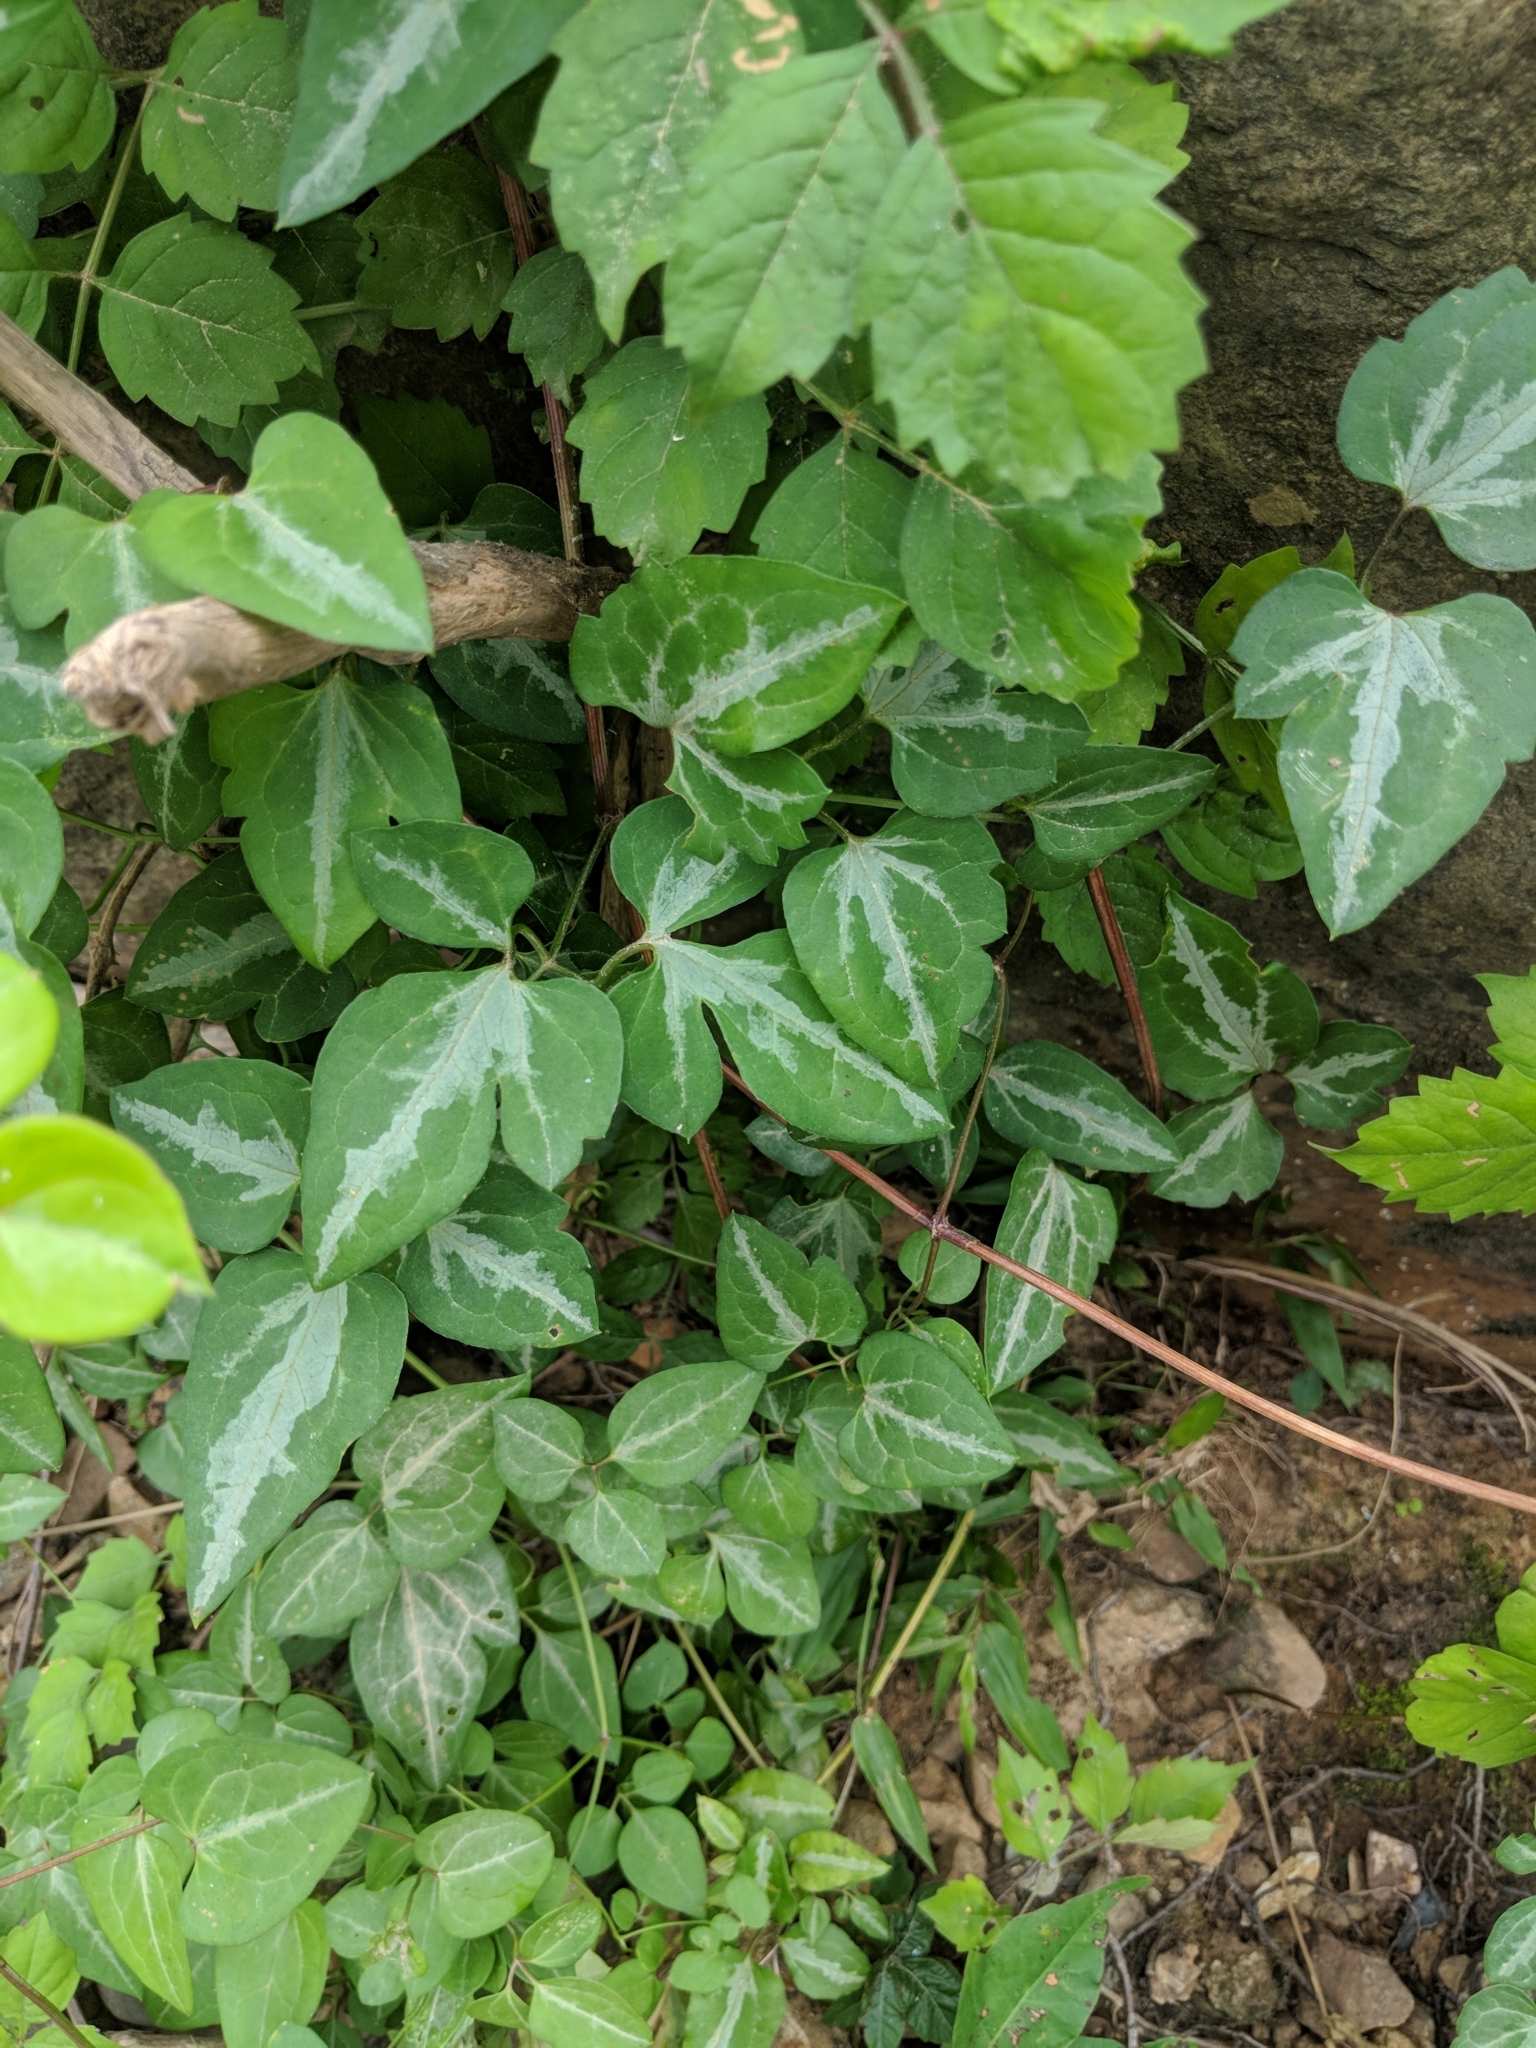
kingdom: Plantae
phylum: Tracheophyta
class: Magnoliopsida
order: Ranunculales
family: Ranunculaceae
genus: Clematis
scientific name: Clematis terniflora
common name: Sweet autumn clematis
